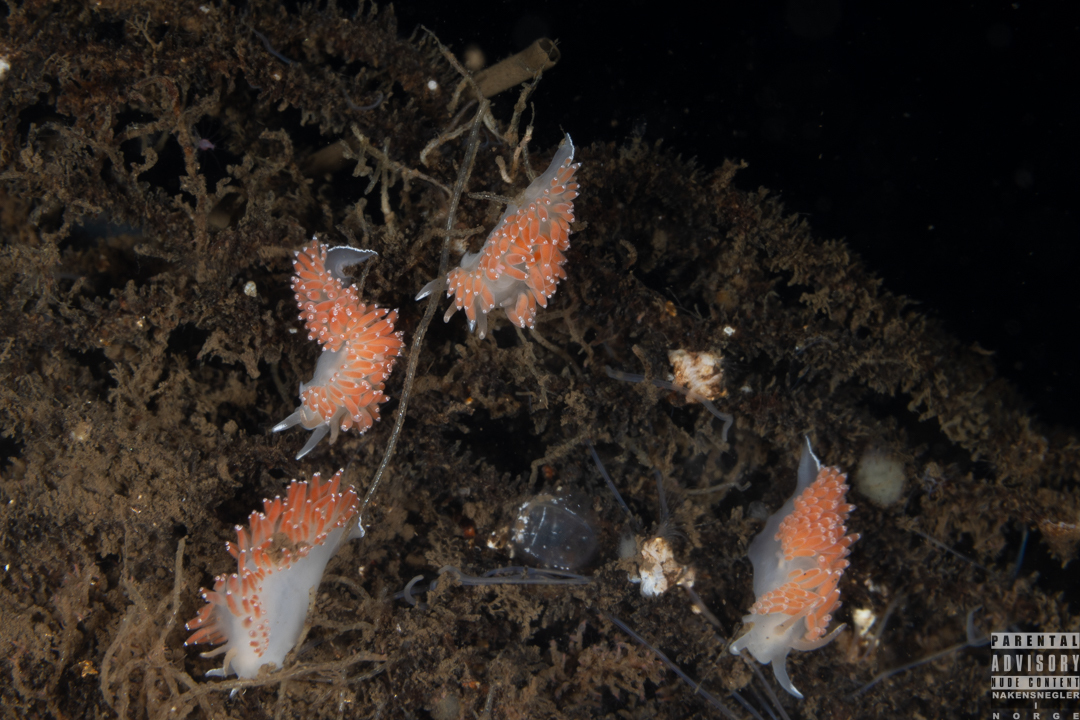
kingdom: Animalia
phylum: Mollusca
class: Gastropoda
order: Nudibranchia
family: Coryphellidae
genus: Coryphella
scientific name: Coryphella verrucosa
